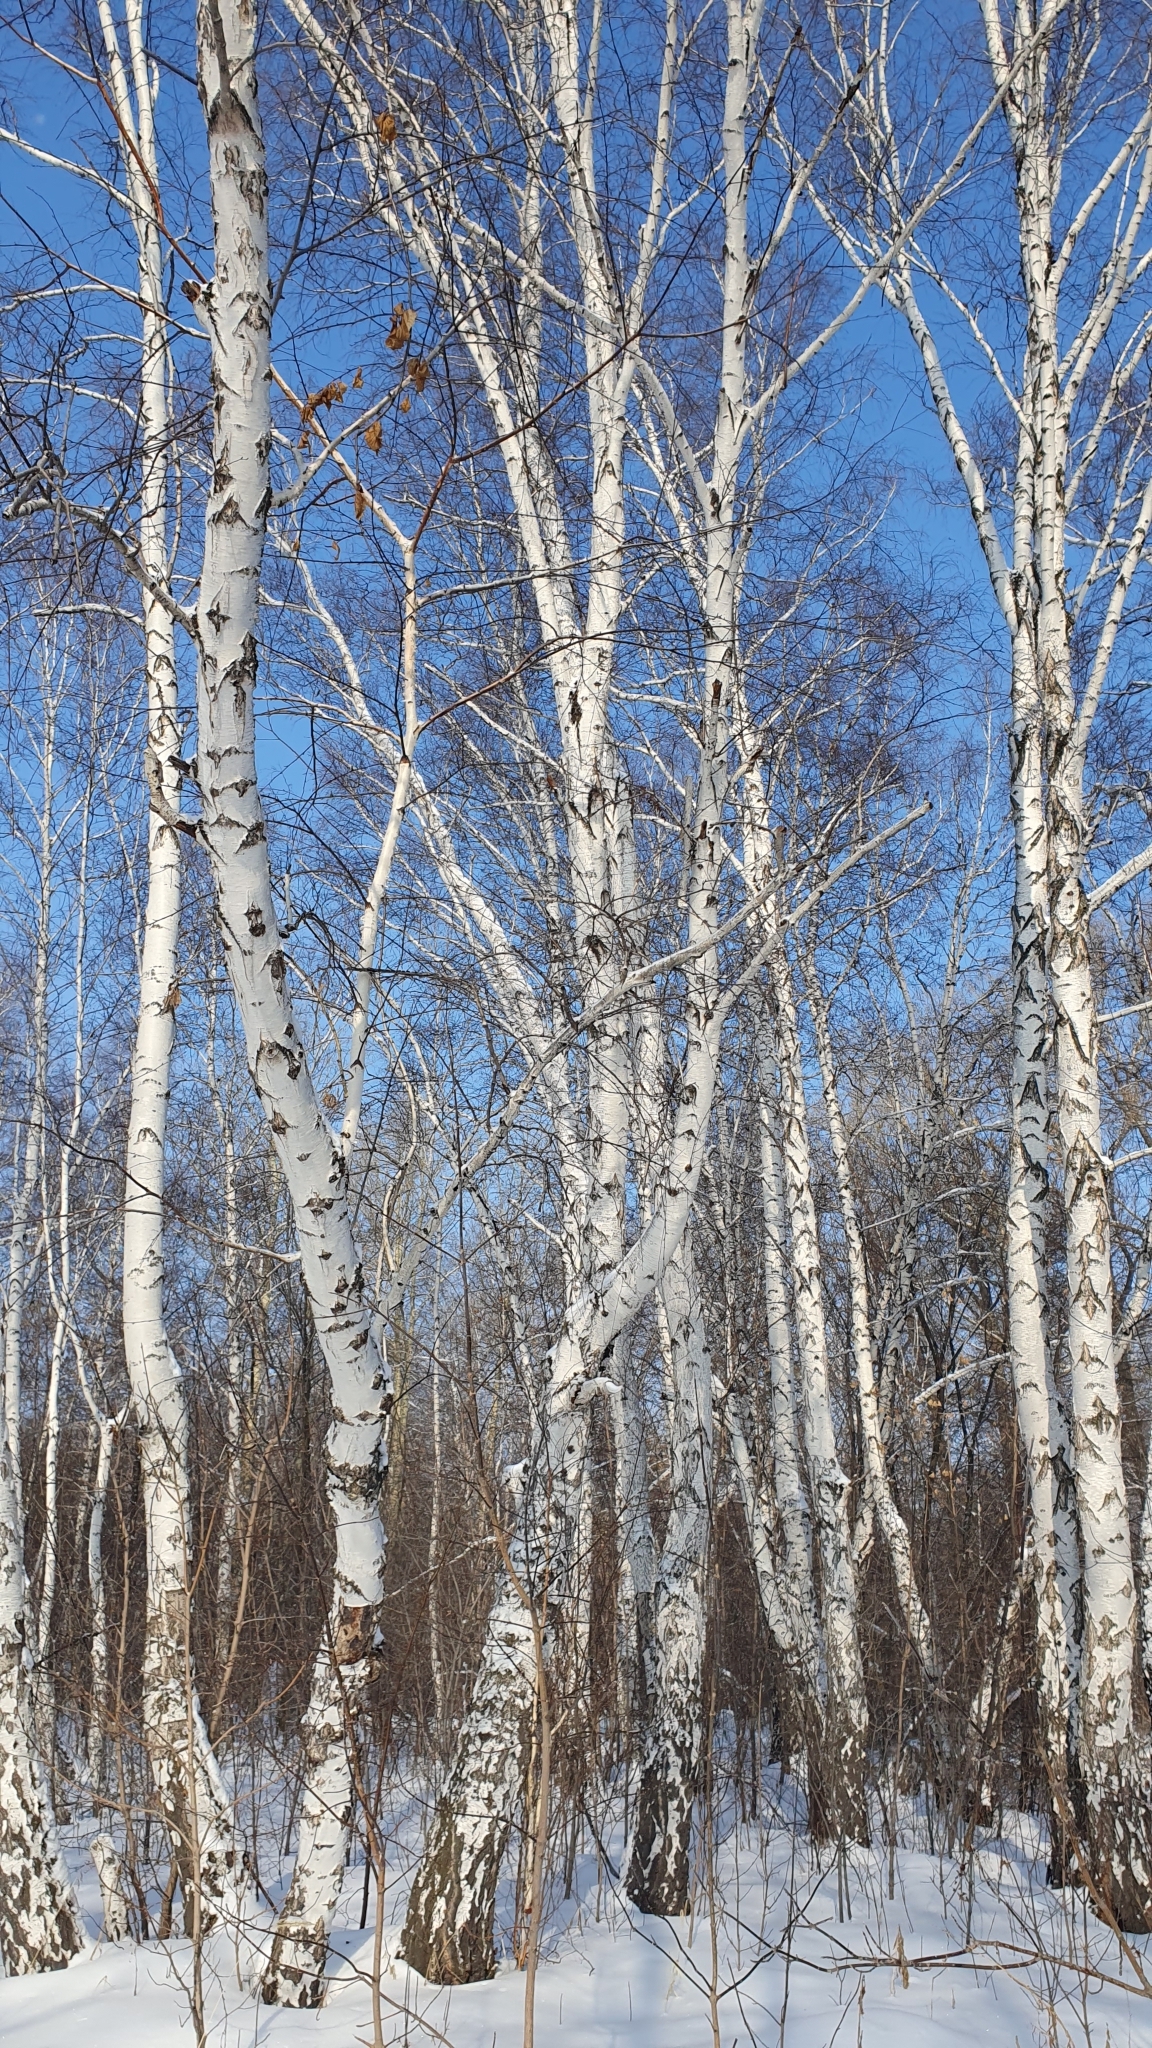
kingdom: Plantae
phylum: Tracheophyta
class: Magnoliopsida
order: Fagales
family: Betulaceae
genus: Betula
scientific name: Betula pendula
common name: Silver birch
